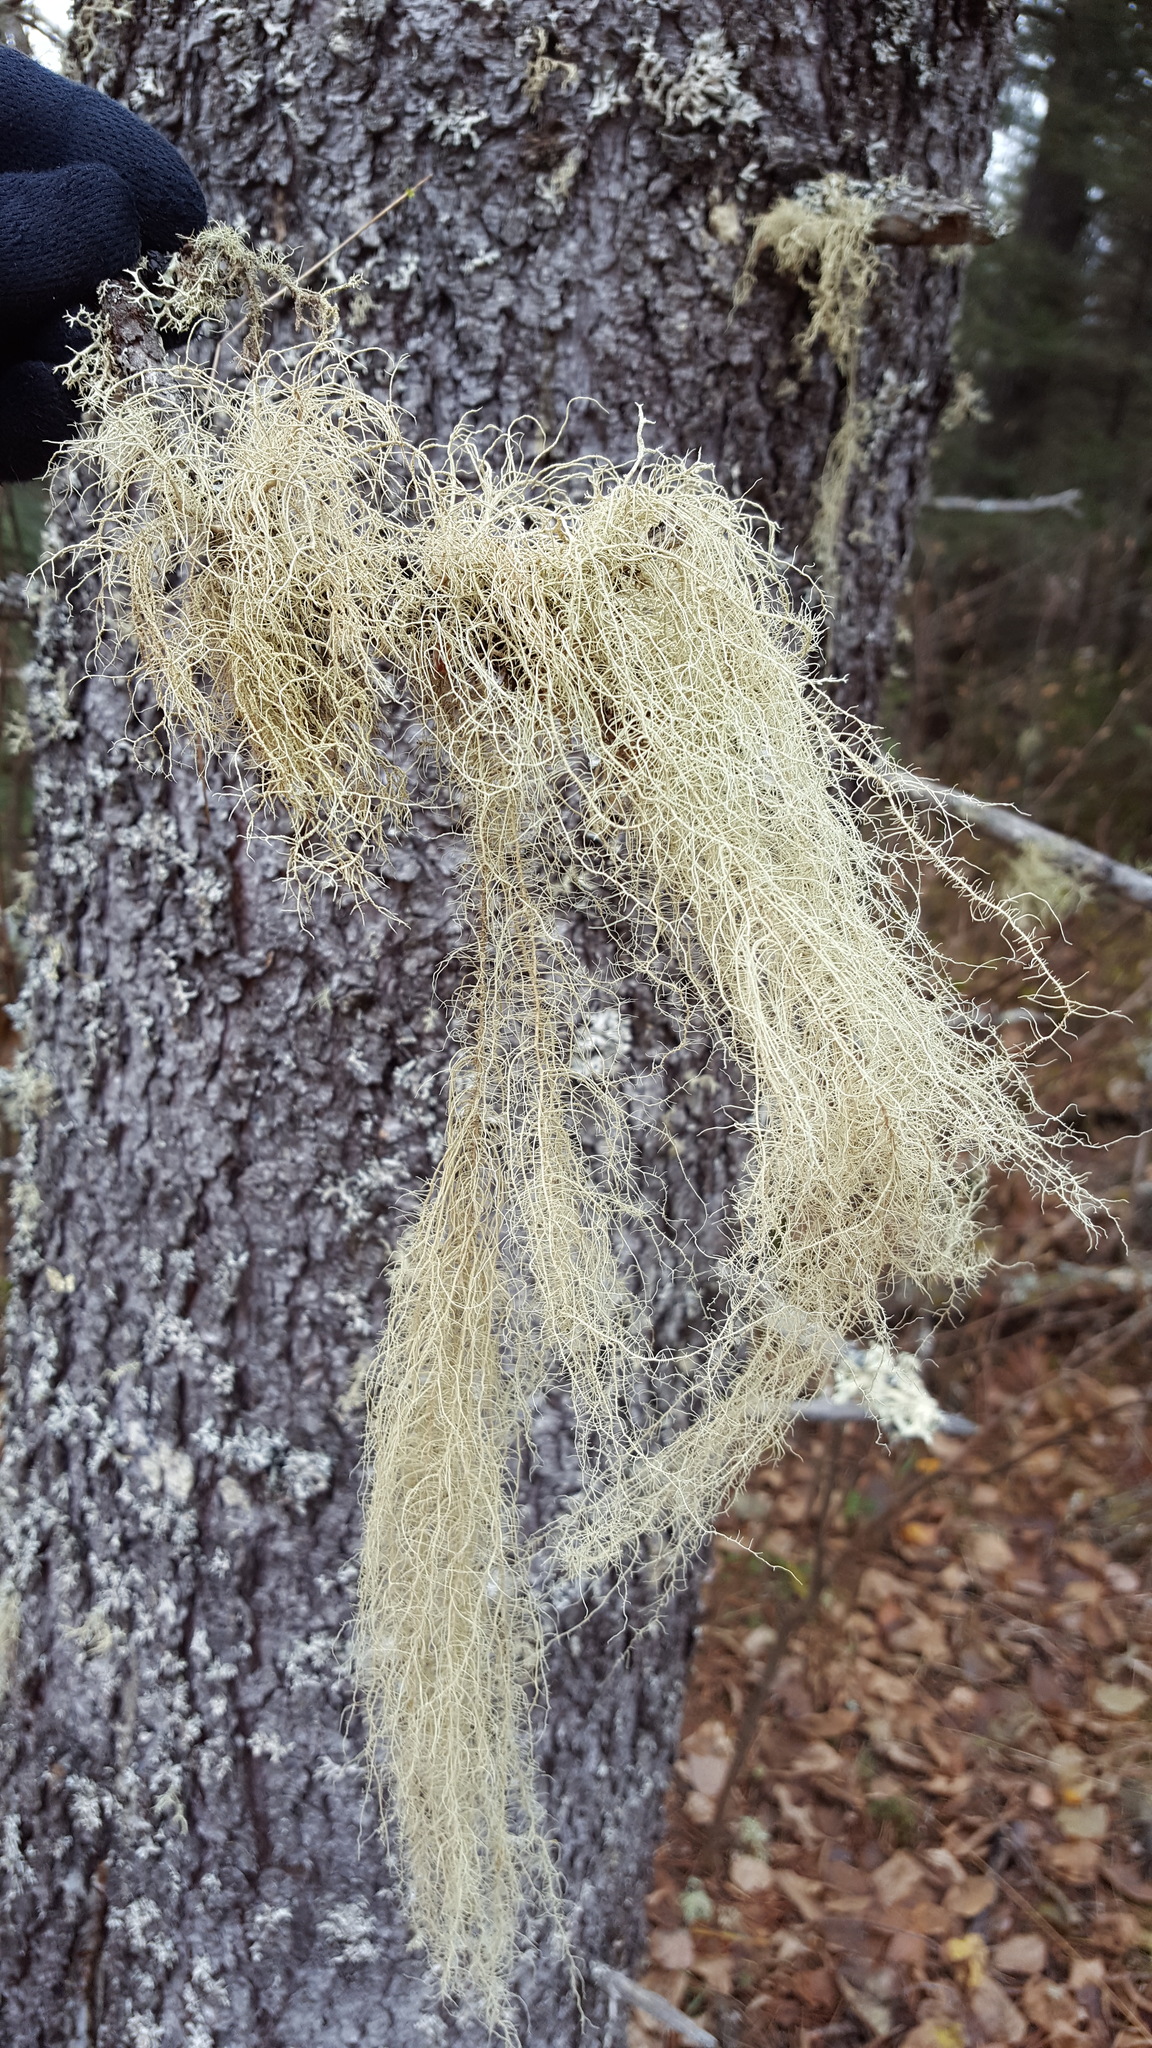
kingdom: Fungi
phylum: Ascomycota
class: Lecanoromycetes
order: Lecanorales
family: Parmeliaceae
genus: Usnea
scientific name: Usnea dasopoga
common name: Fishbone beard lichen
